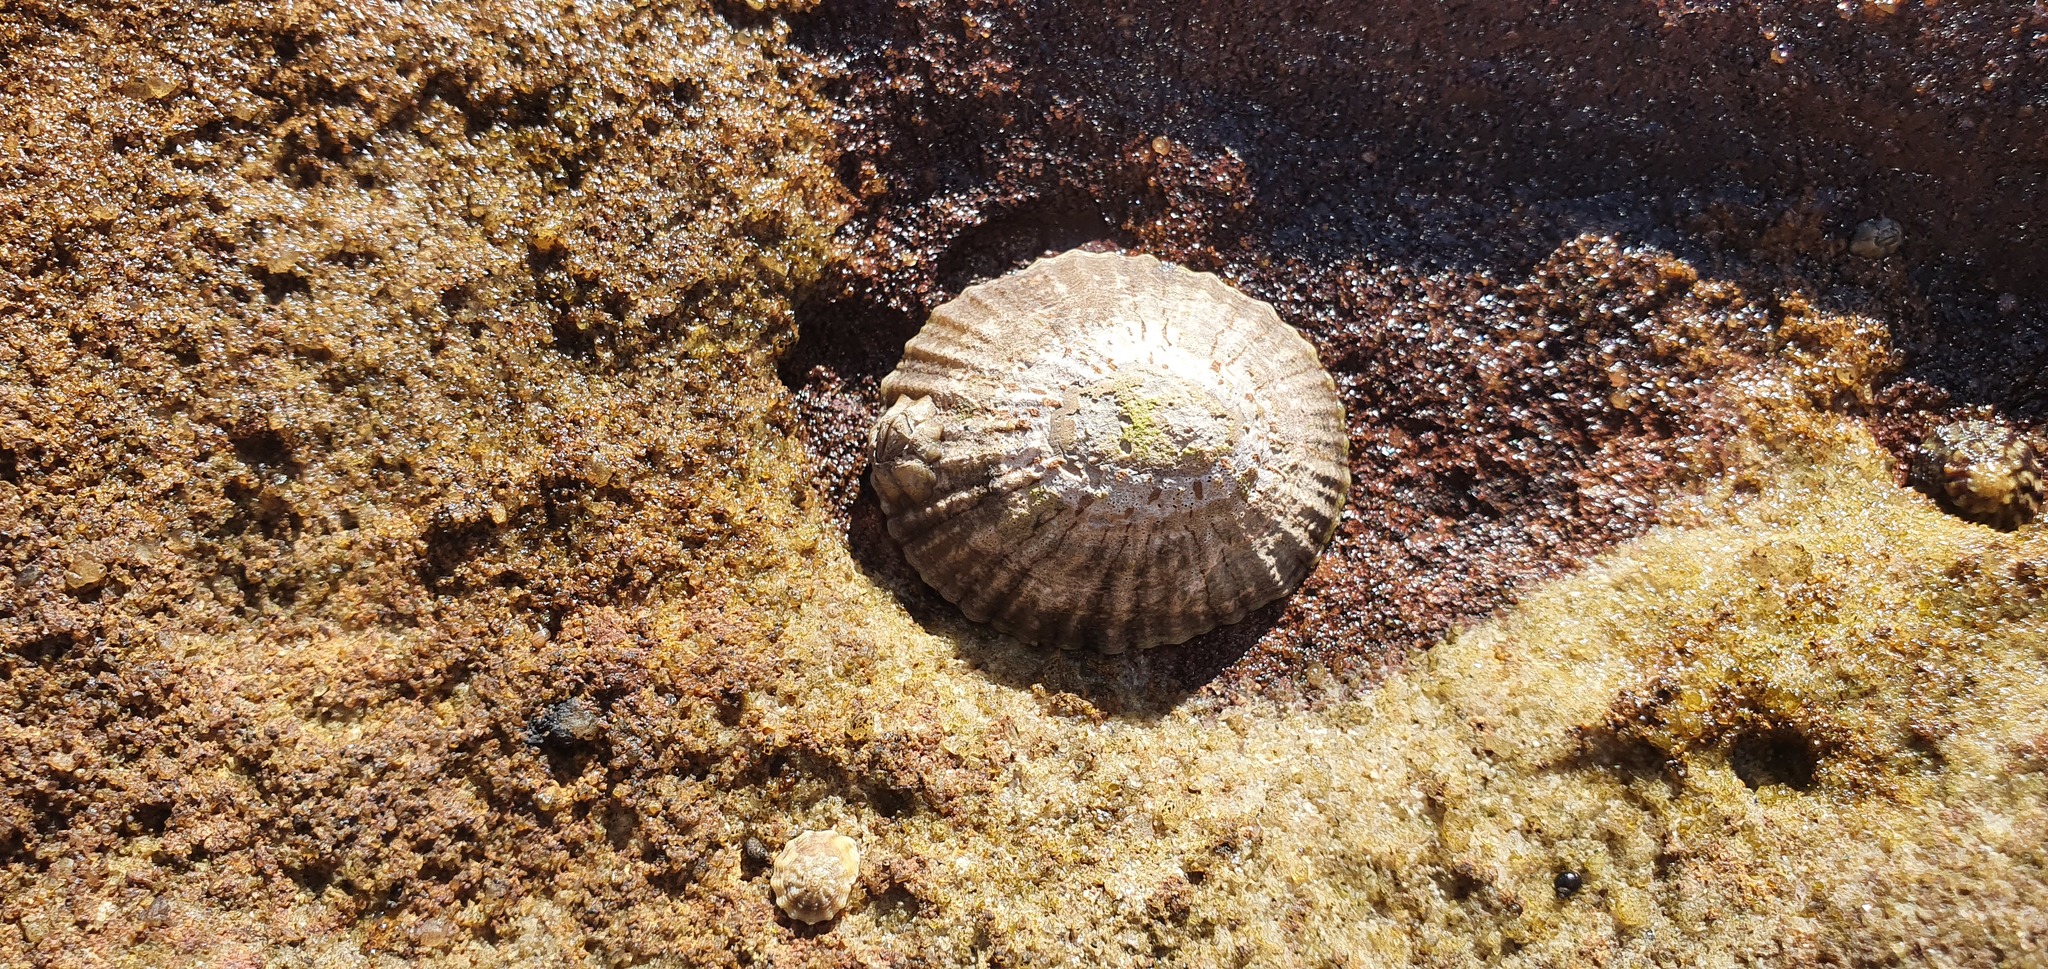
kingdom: Animalia
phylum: Mollusca
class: Gastropoda
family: Nacellidae
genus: Cellana
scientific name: Cellana tramoserica
